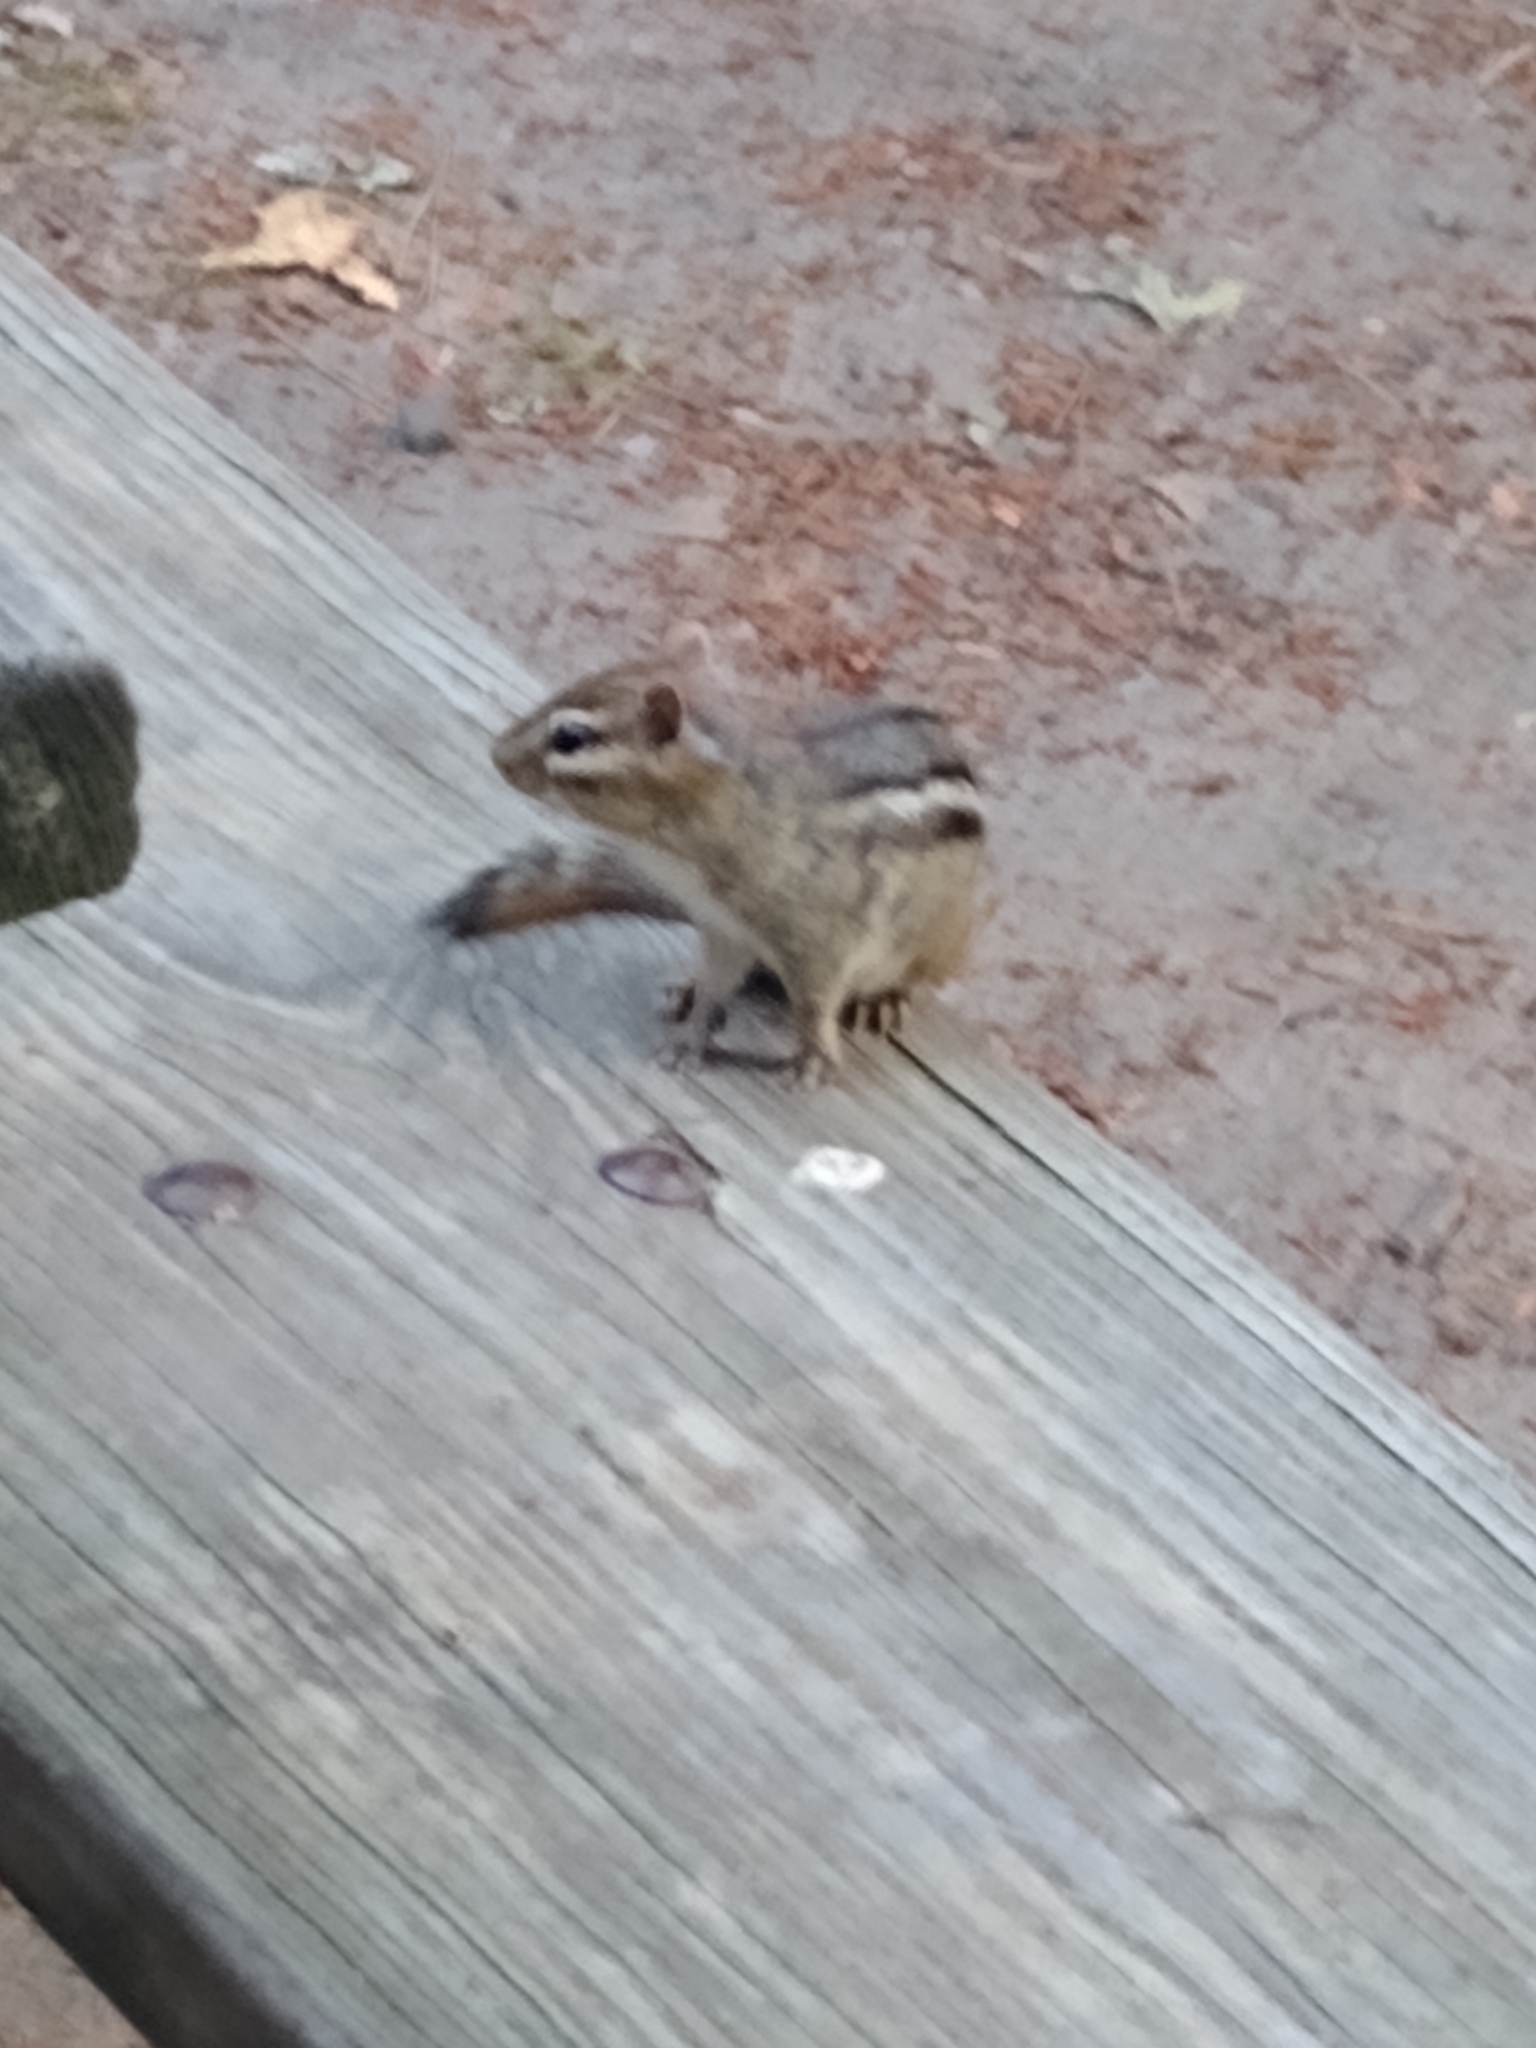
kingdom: Animalia
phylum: Chordata
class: Mammalia
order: Rodentia
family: Sciuridae
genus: Tamias
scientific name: Tamias striatus
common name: Eastern chipmunk
